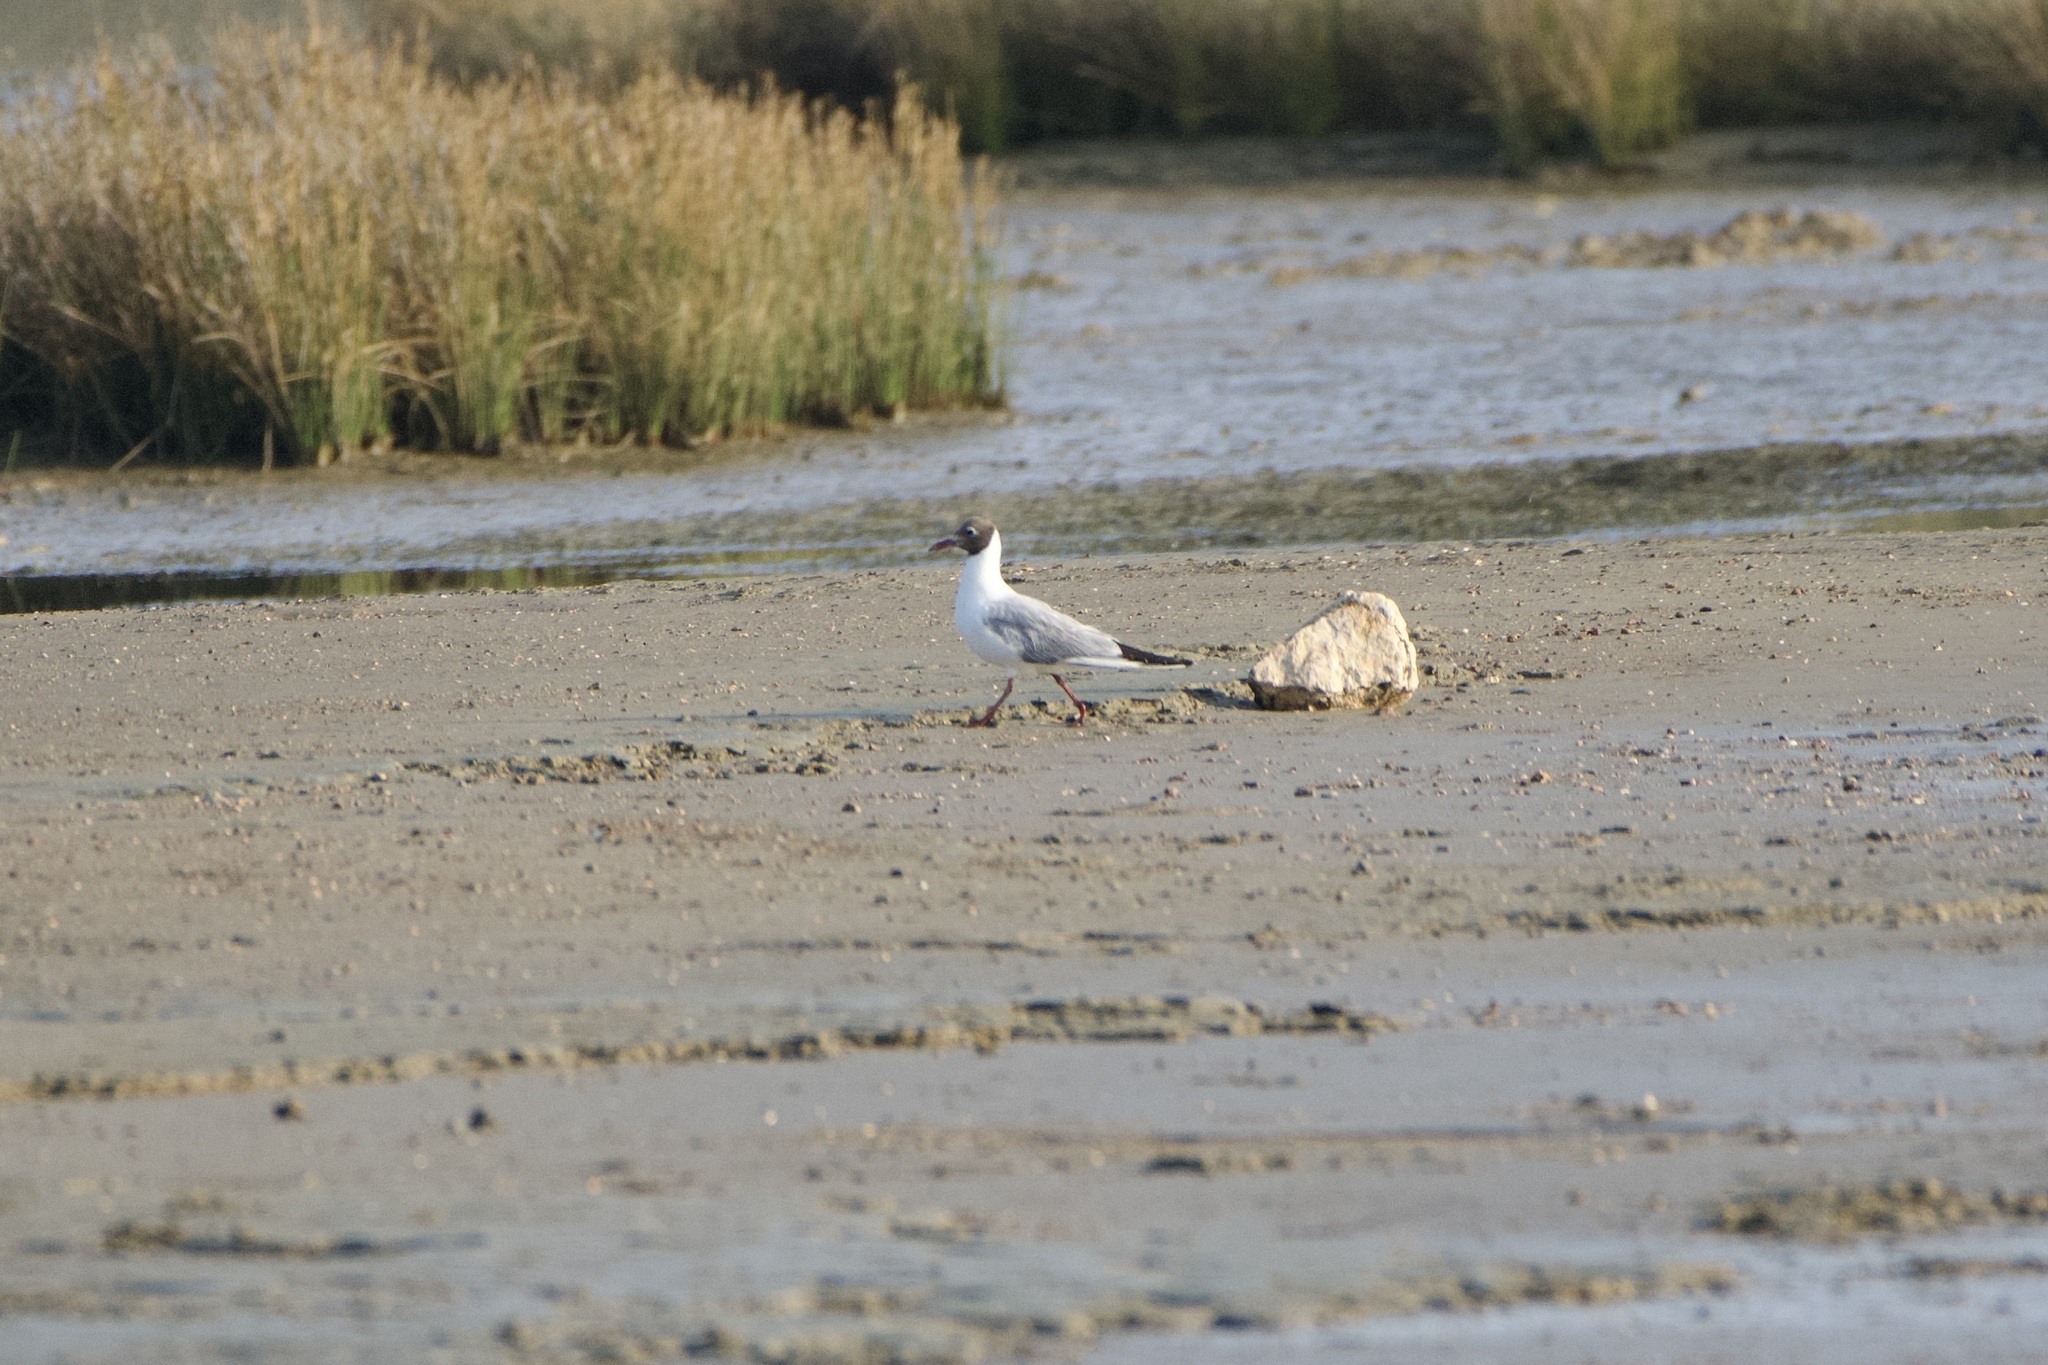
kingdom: Animalia
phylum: Chordata
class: Aves
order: Charadriiformes
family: Laridae
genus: Chroicocephalus
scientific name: Chroicocephalus ridibundus
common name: Black-headed gull
